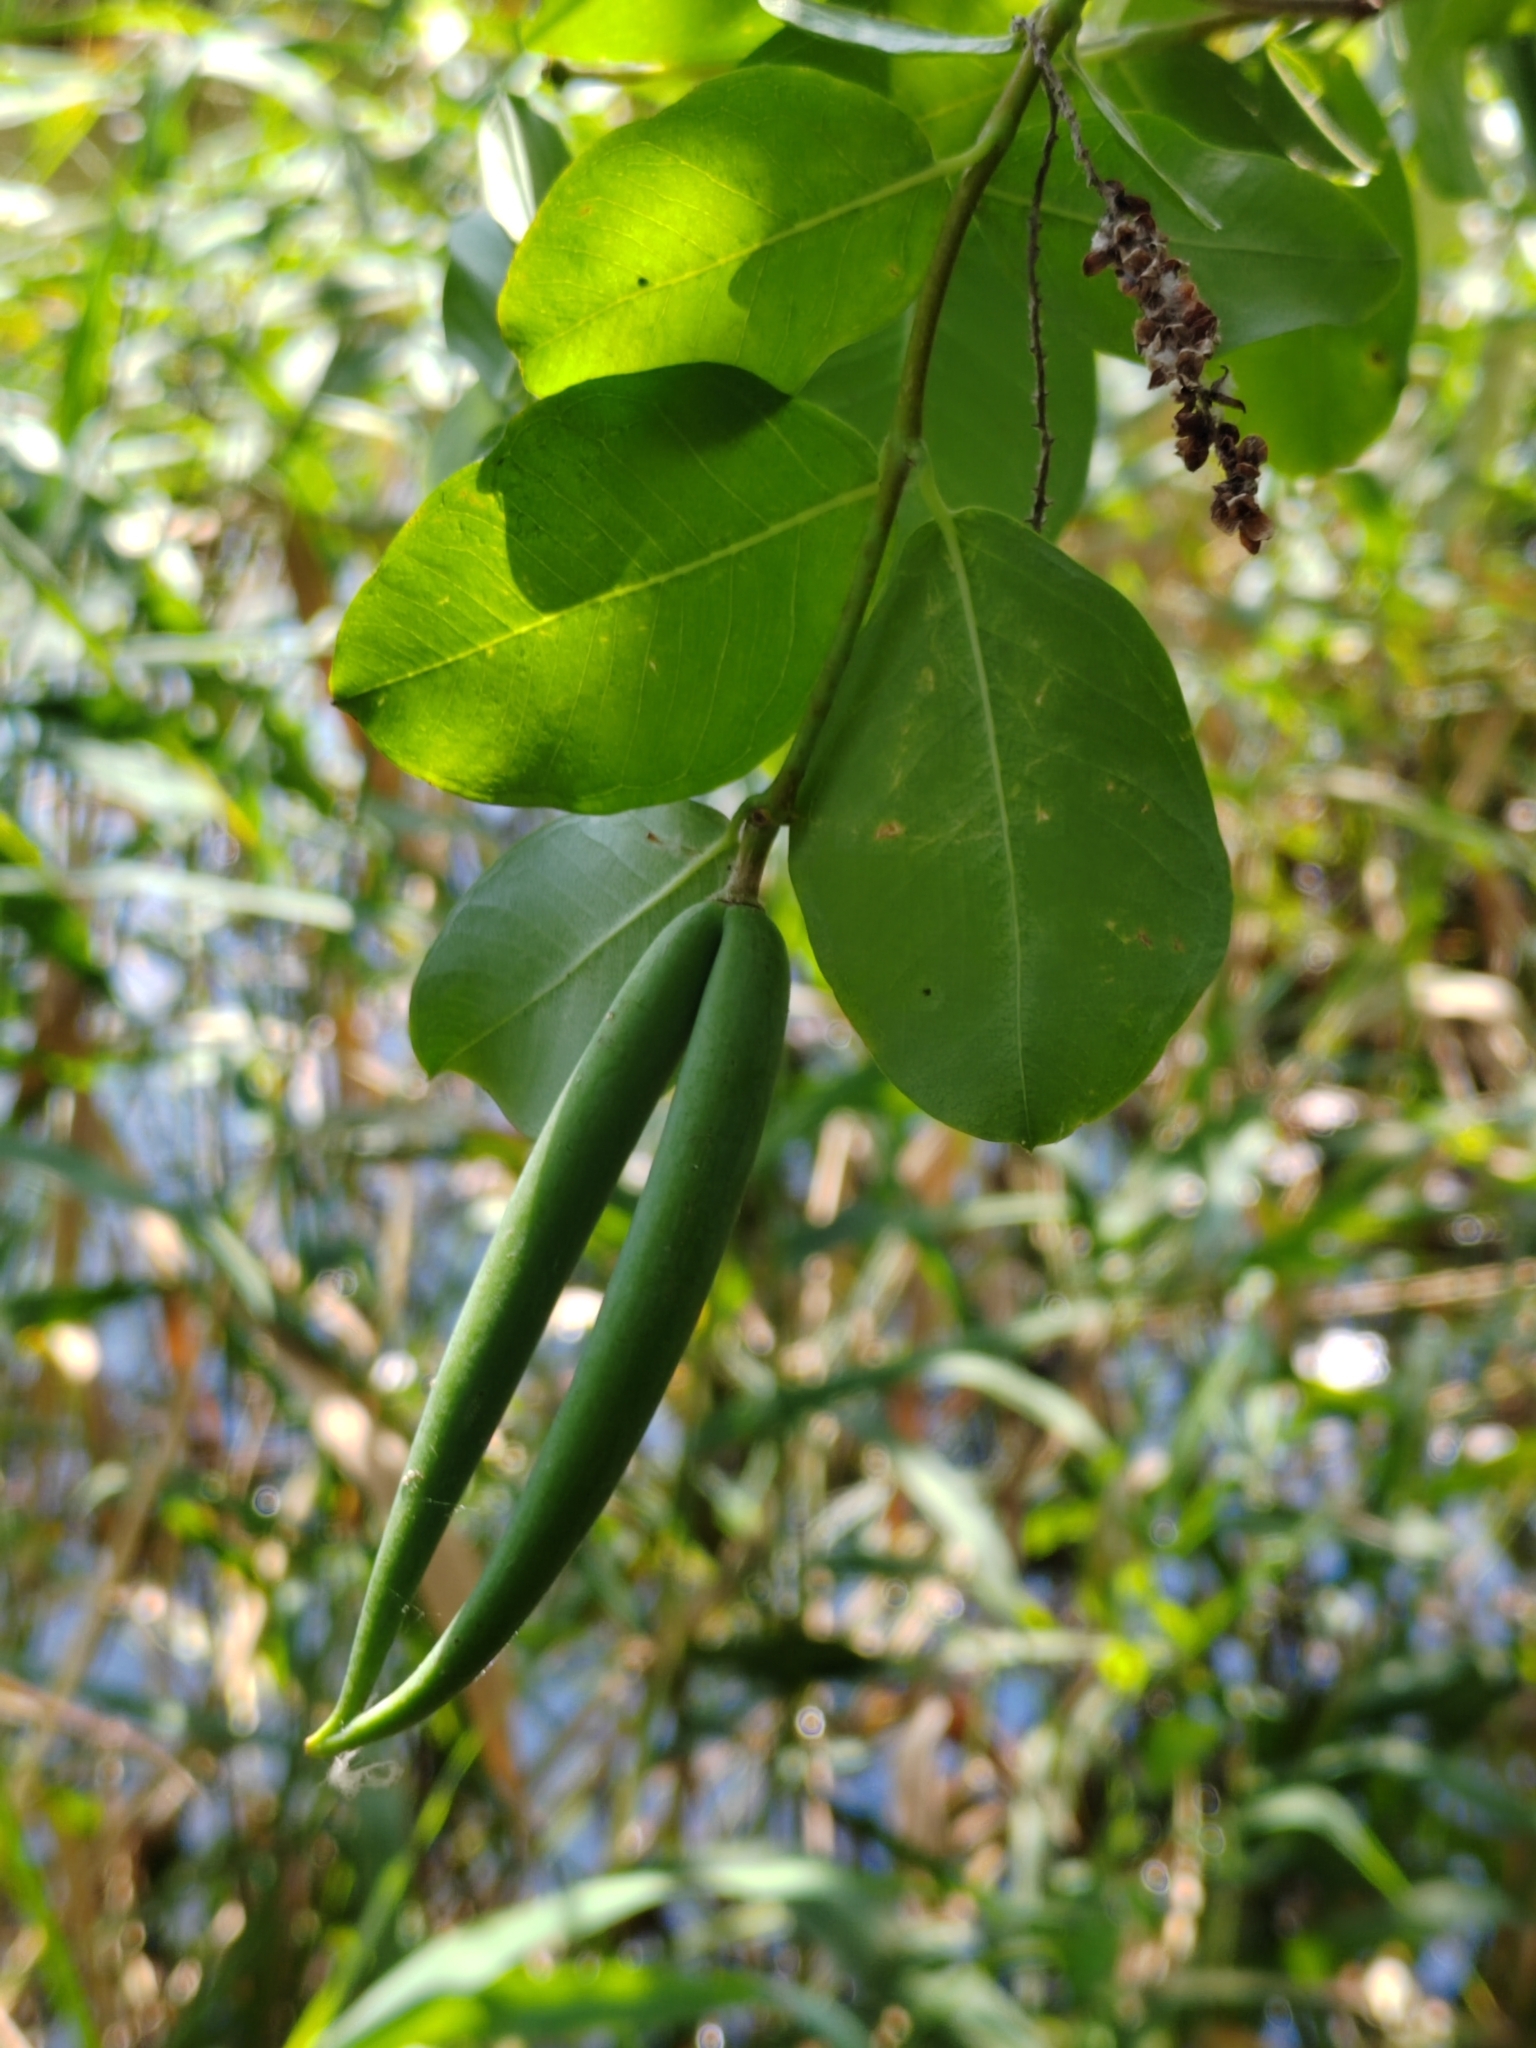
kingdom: Plantae
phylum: Tracheophyta
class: Magnoliopsida
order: Gentianales
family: Apocynaceae
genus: Periploca
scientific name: Periploca graeca
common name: Silkvine
